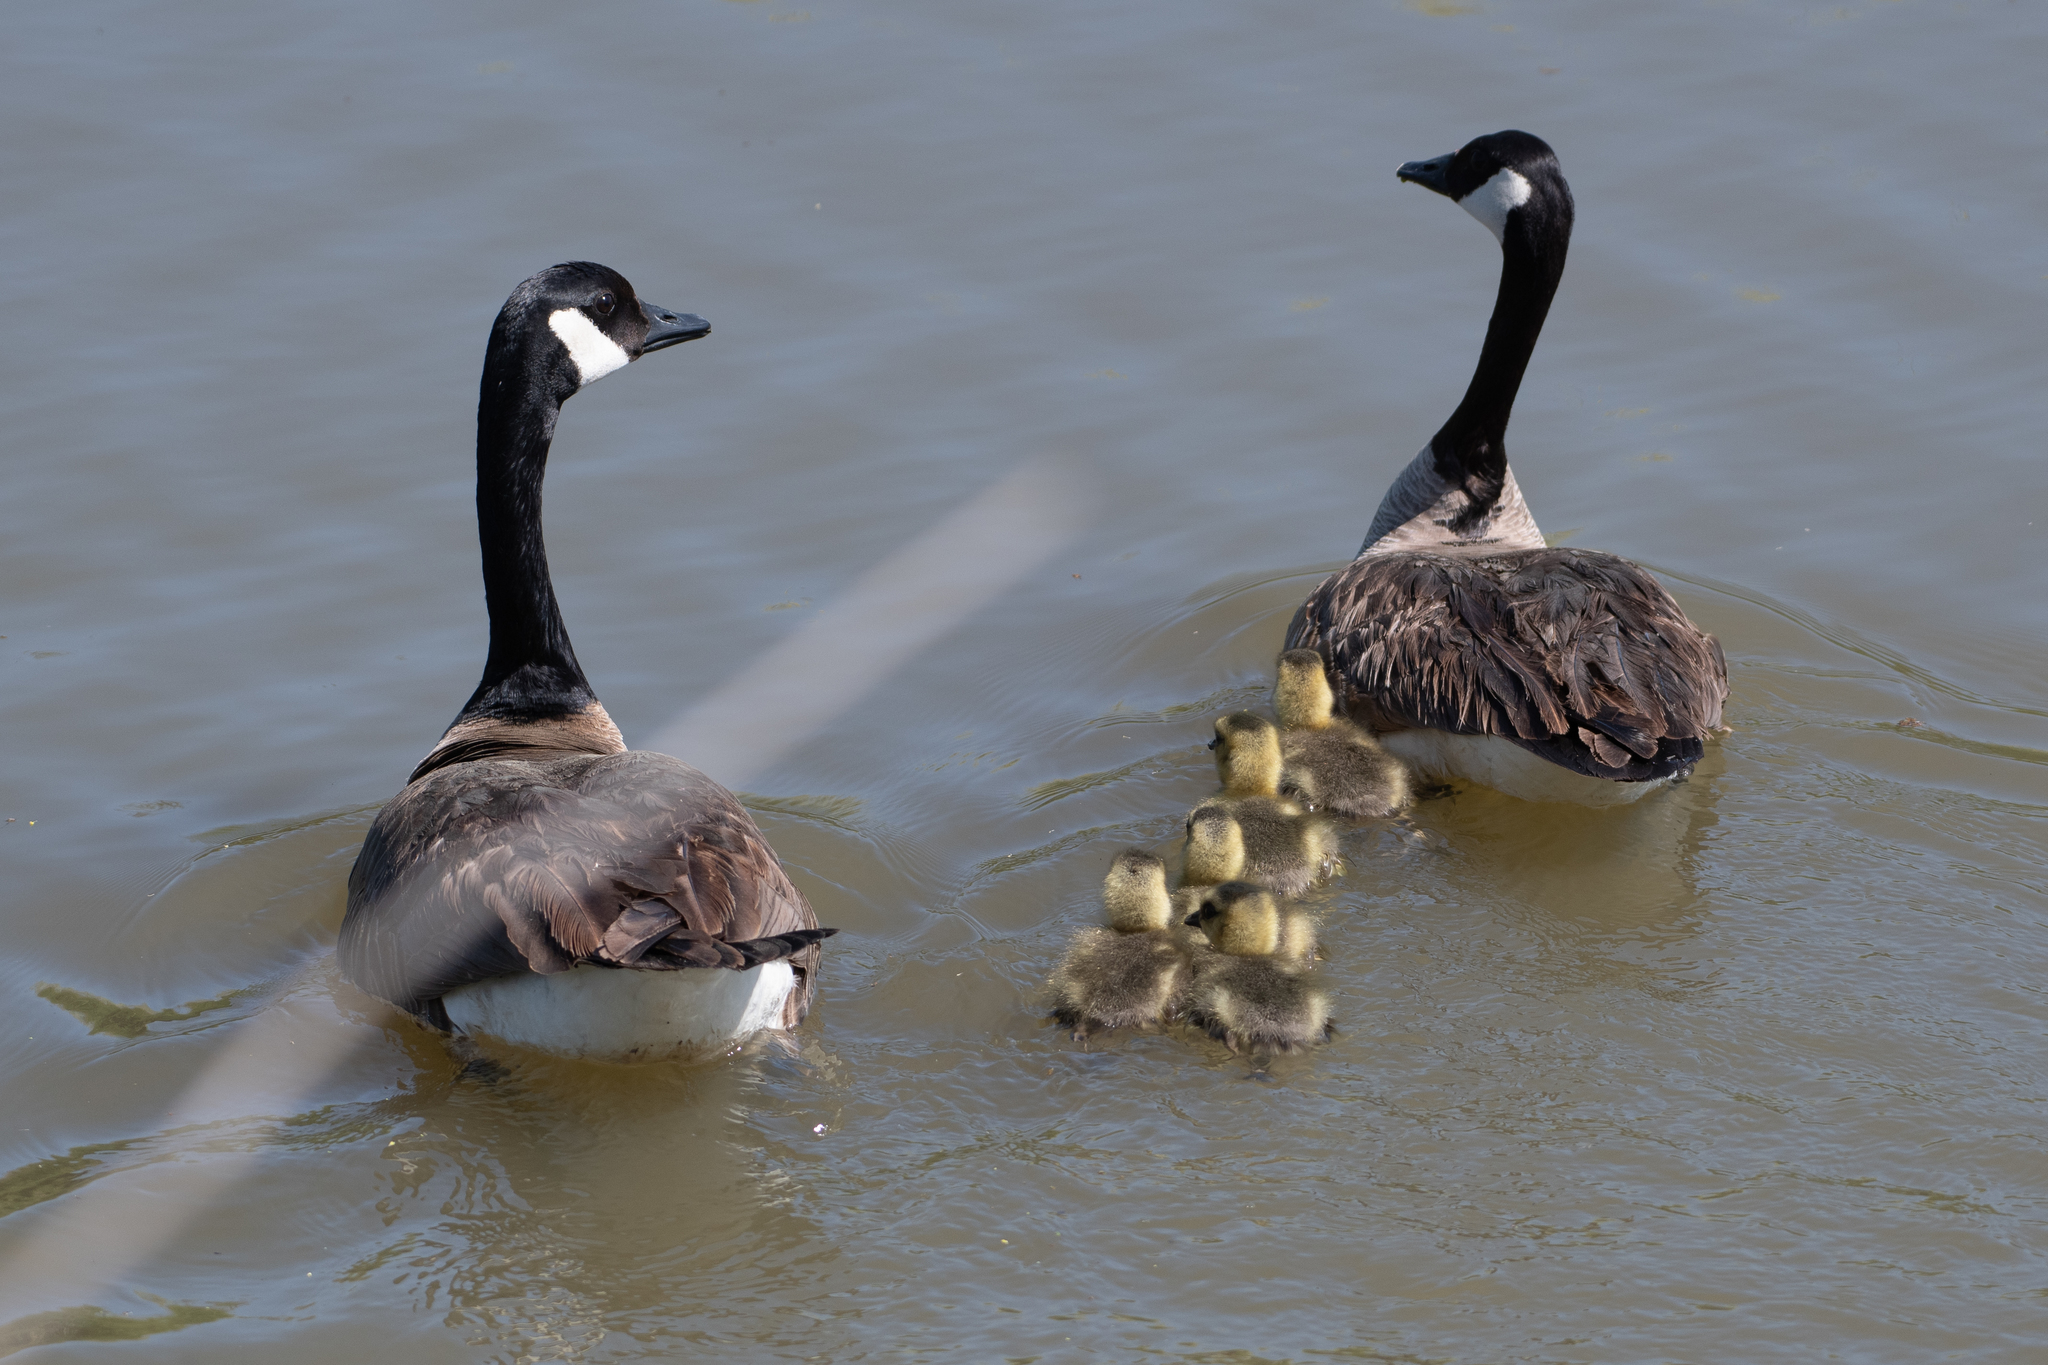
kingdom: Animalia
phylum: Chordata
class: Aves
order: Anseriformes
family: Anatidae
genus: Branta
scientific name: Branta canadensis
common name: Canada goose
